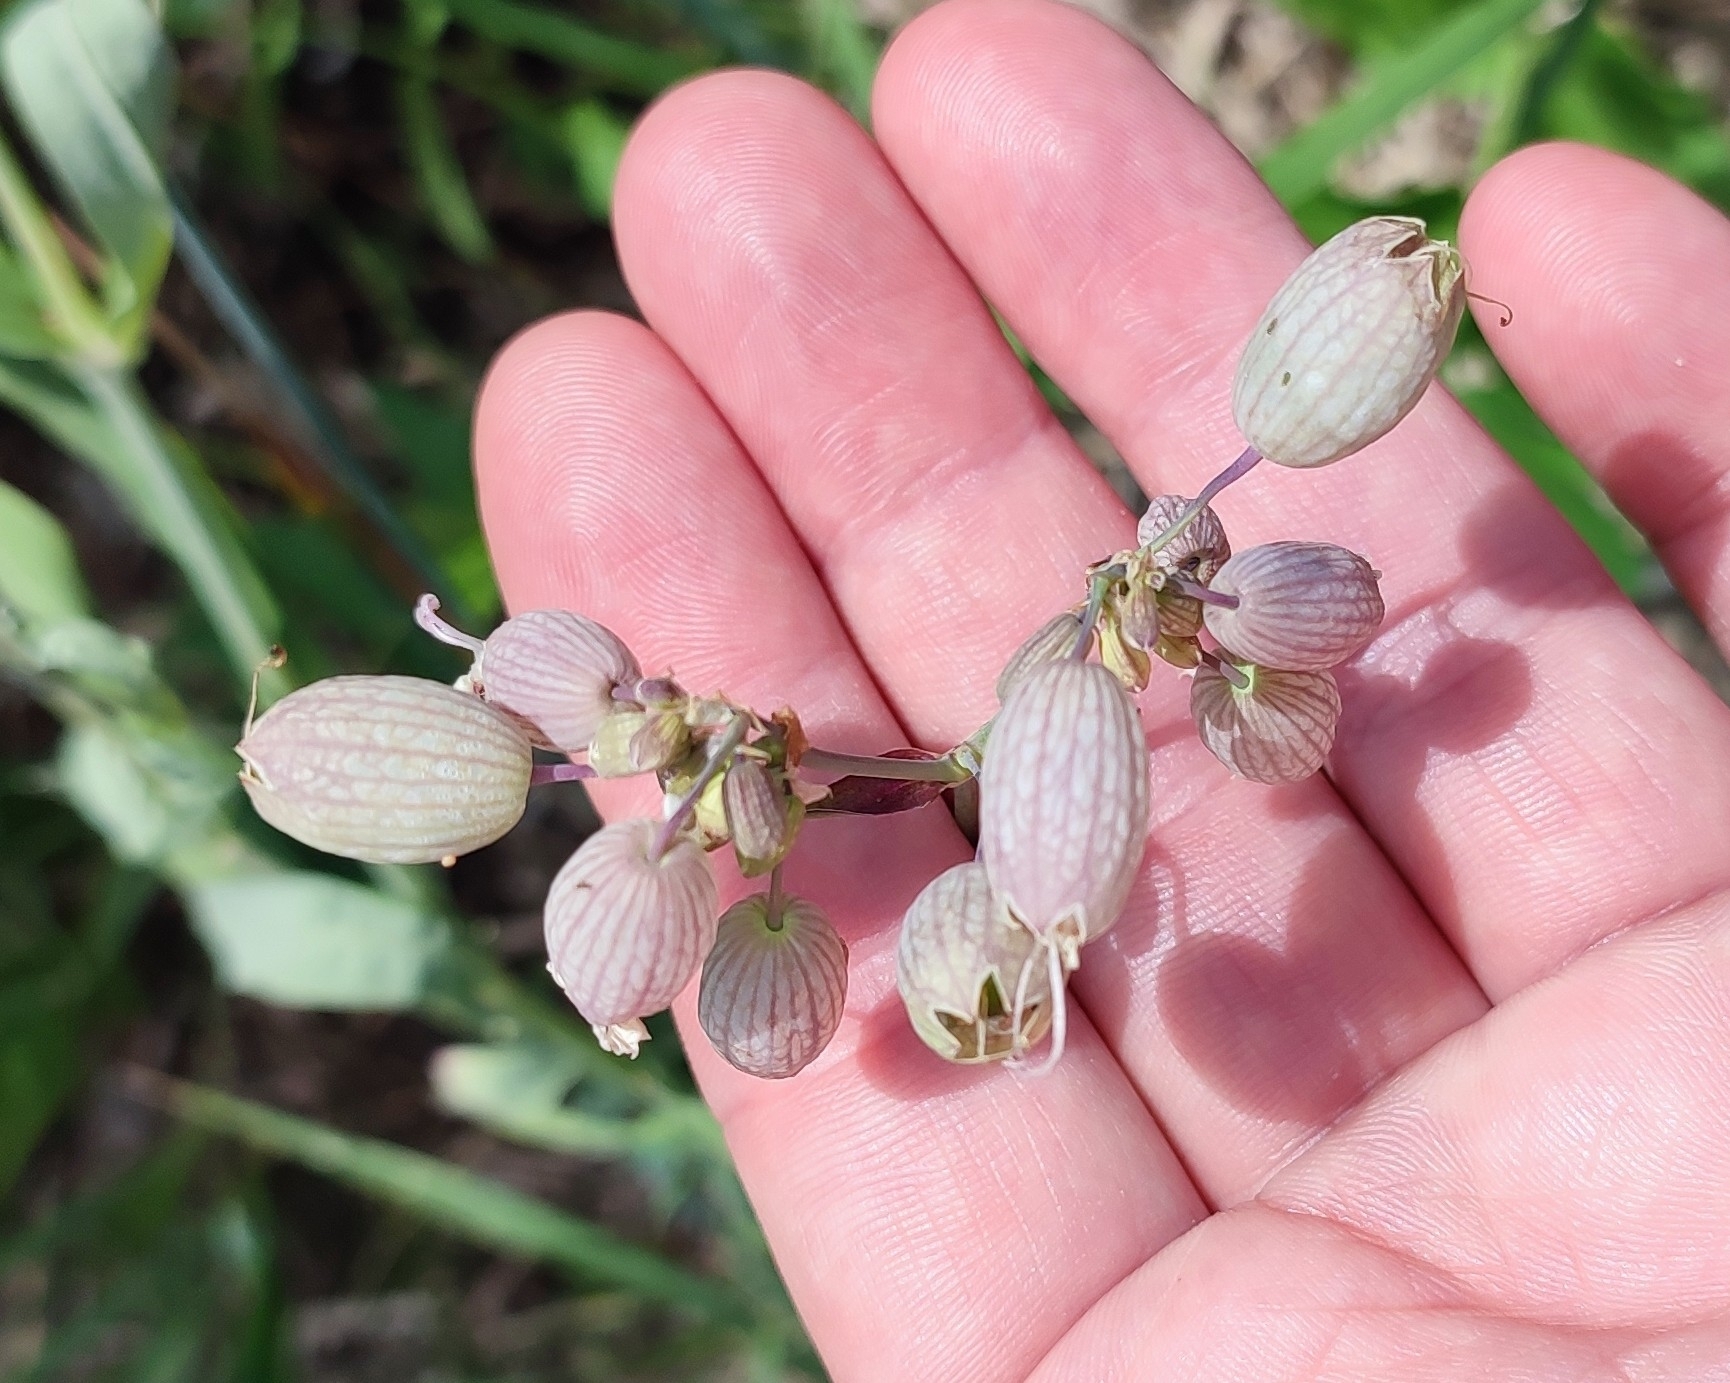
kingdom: Plantae
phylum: Tracheophyta
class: Magnoliopsida
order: Caryophyllales
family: Caryophyllaceae
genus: Silene
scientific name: Silene vulgaris
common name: Bladder campion
